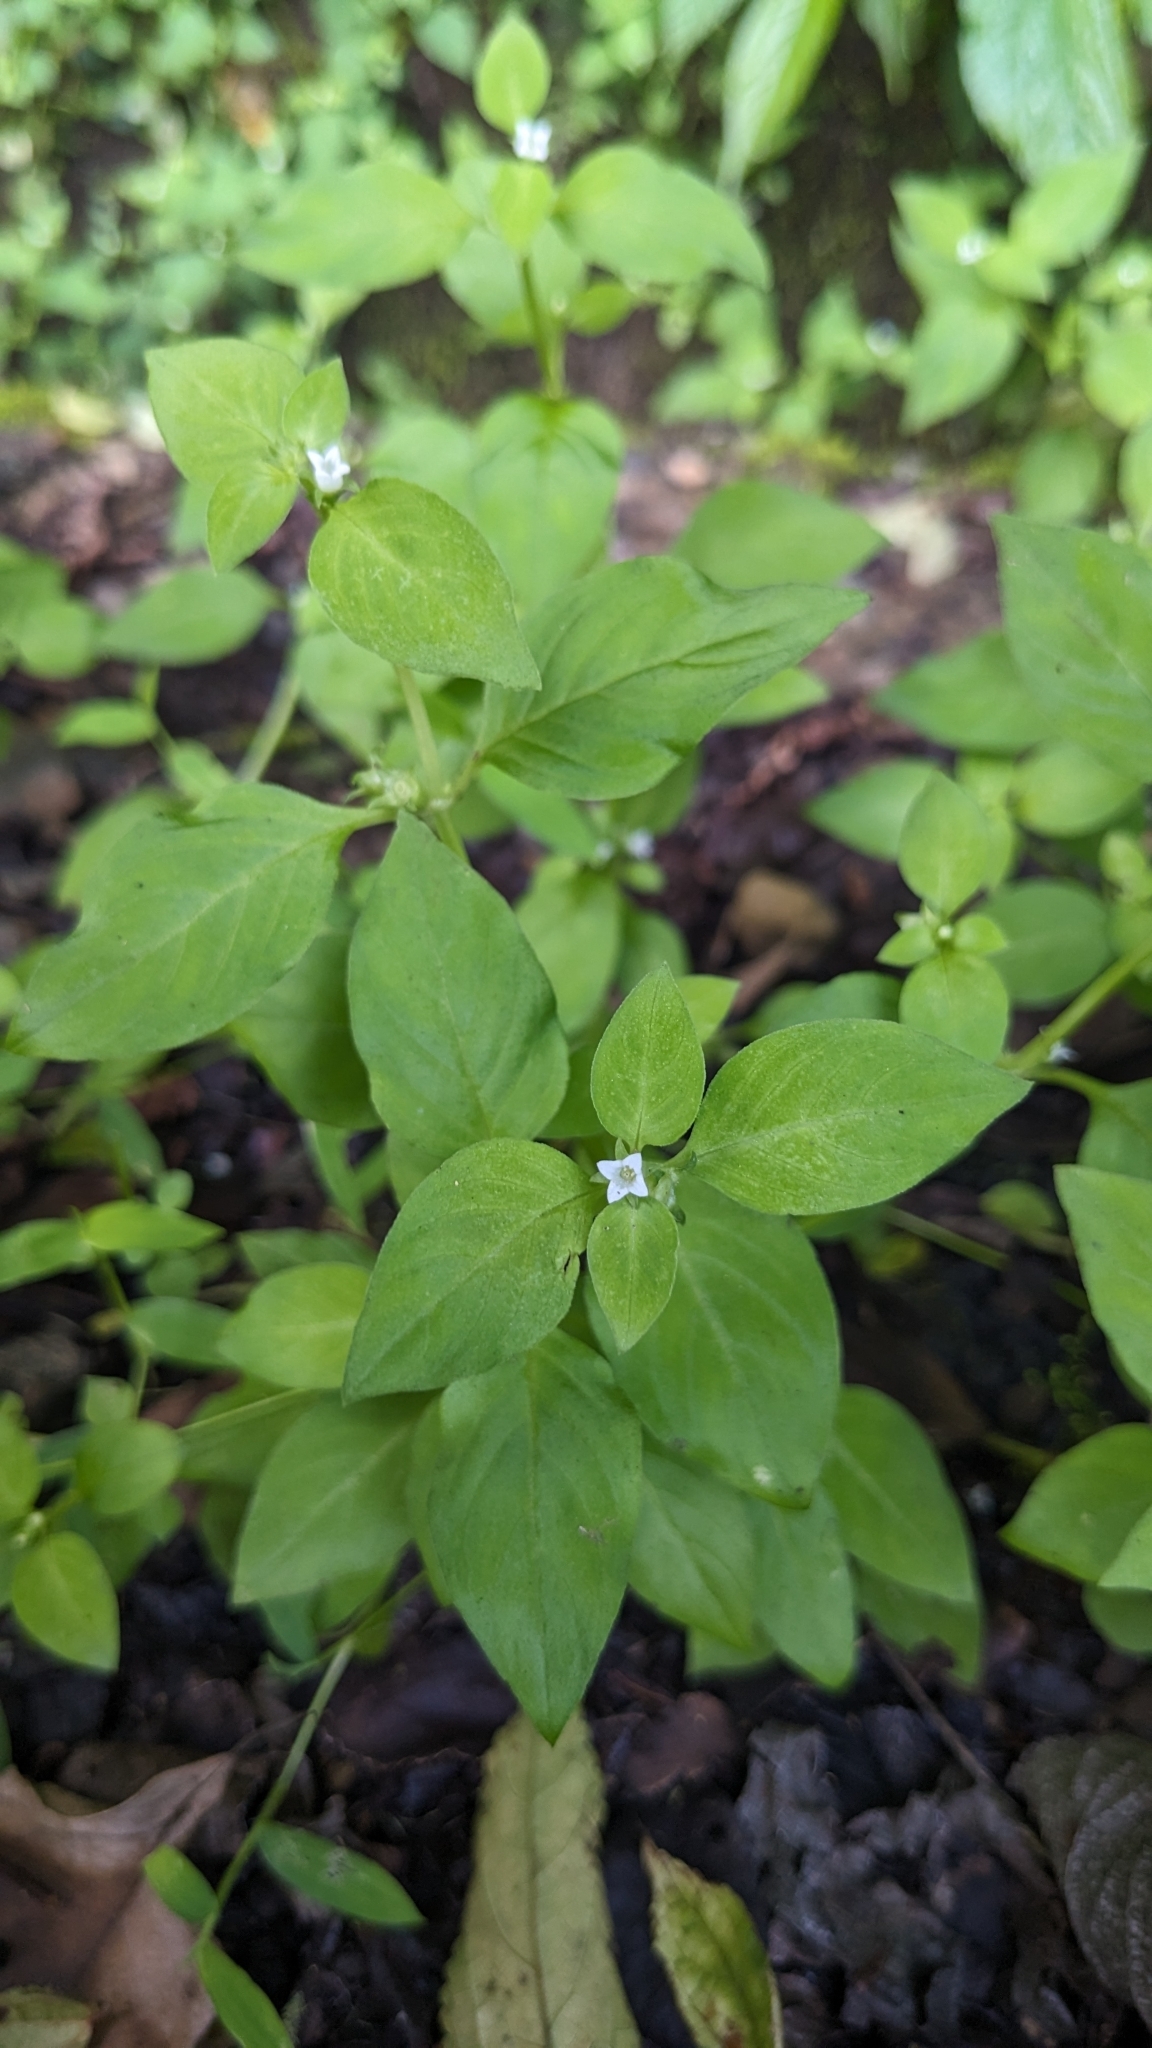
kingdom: Plantae
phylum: Tracheophyta
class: Magnoliopsida
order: Gentianales
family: Rubiaceae
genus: Neanotis
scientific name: Neanotis hirsuta
